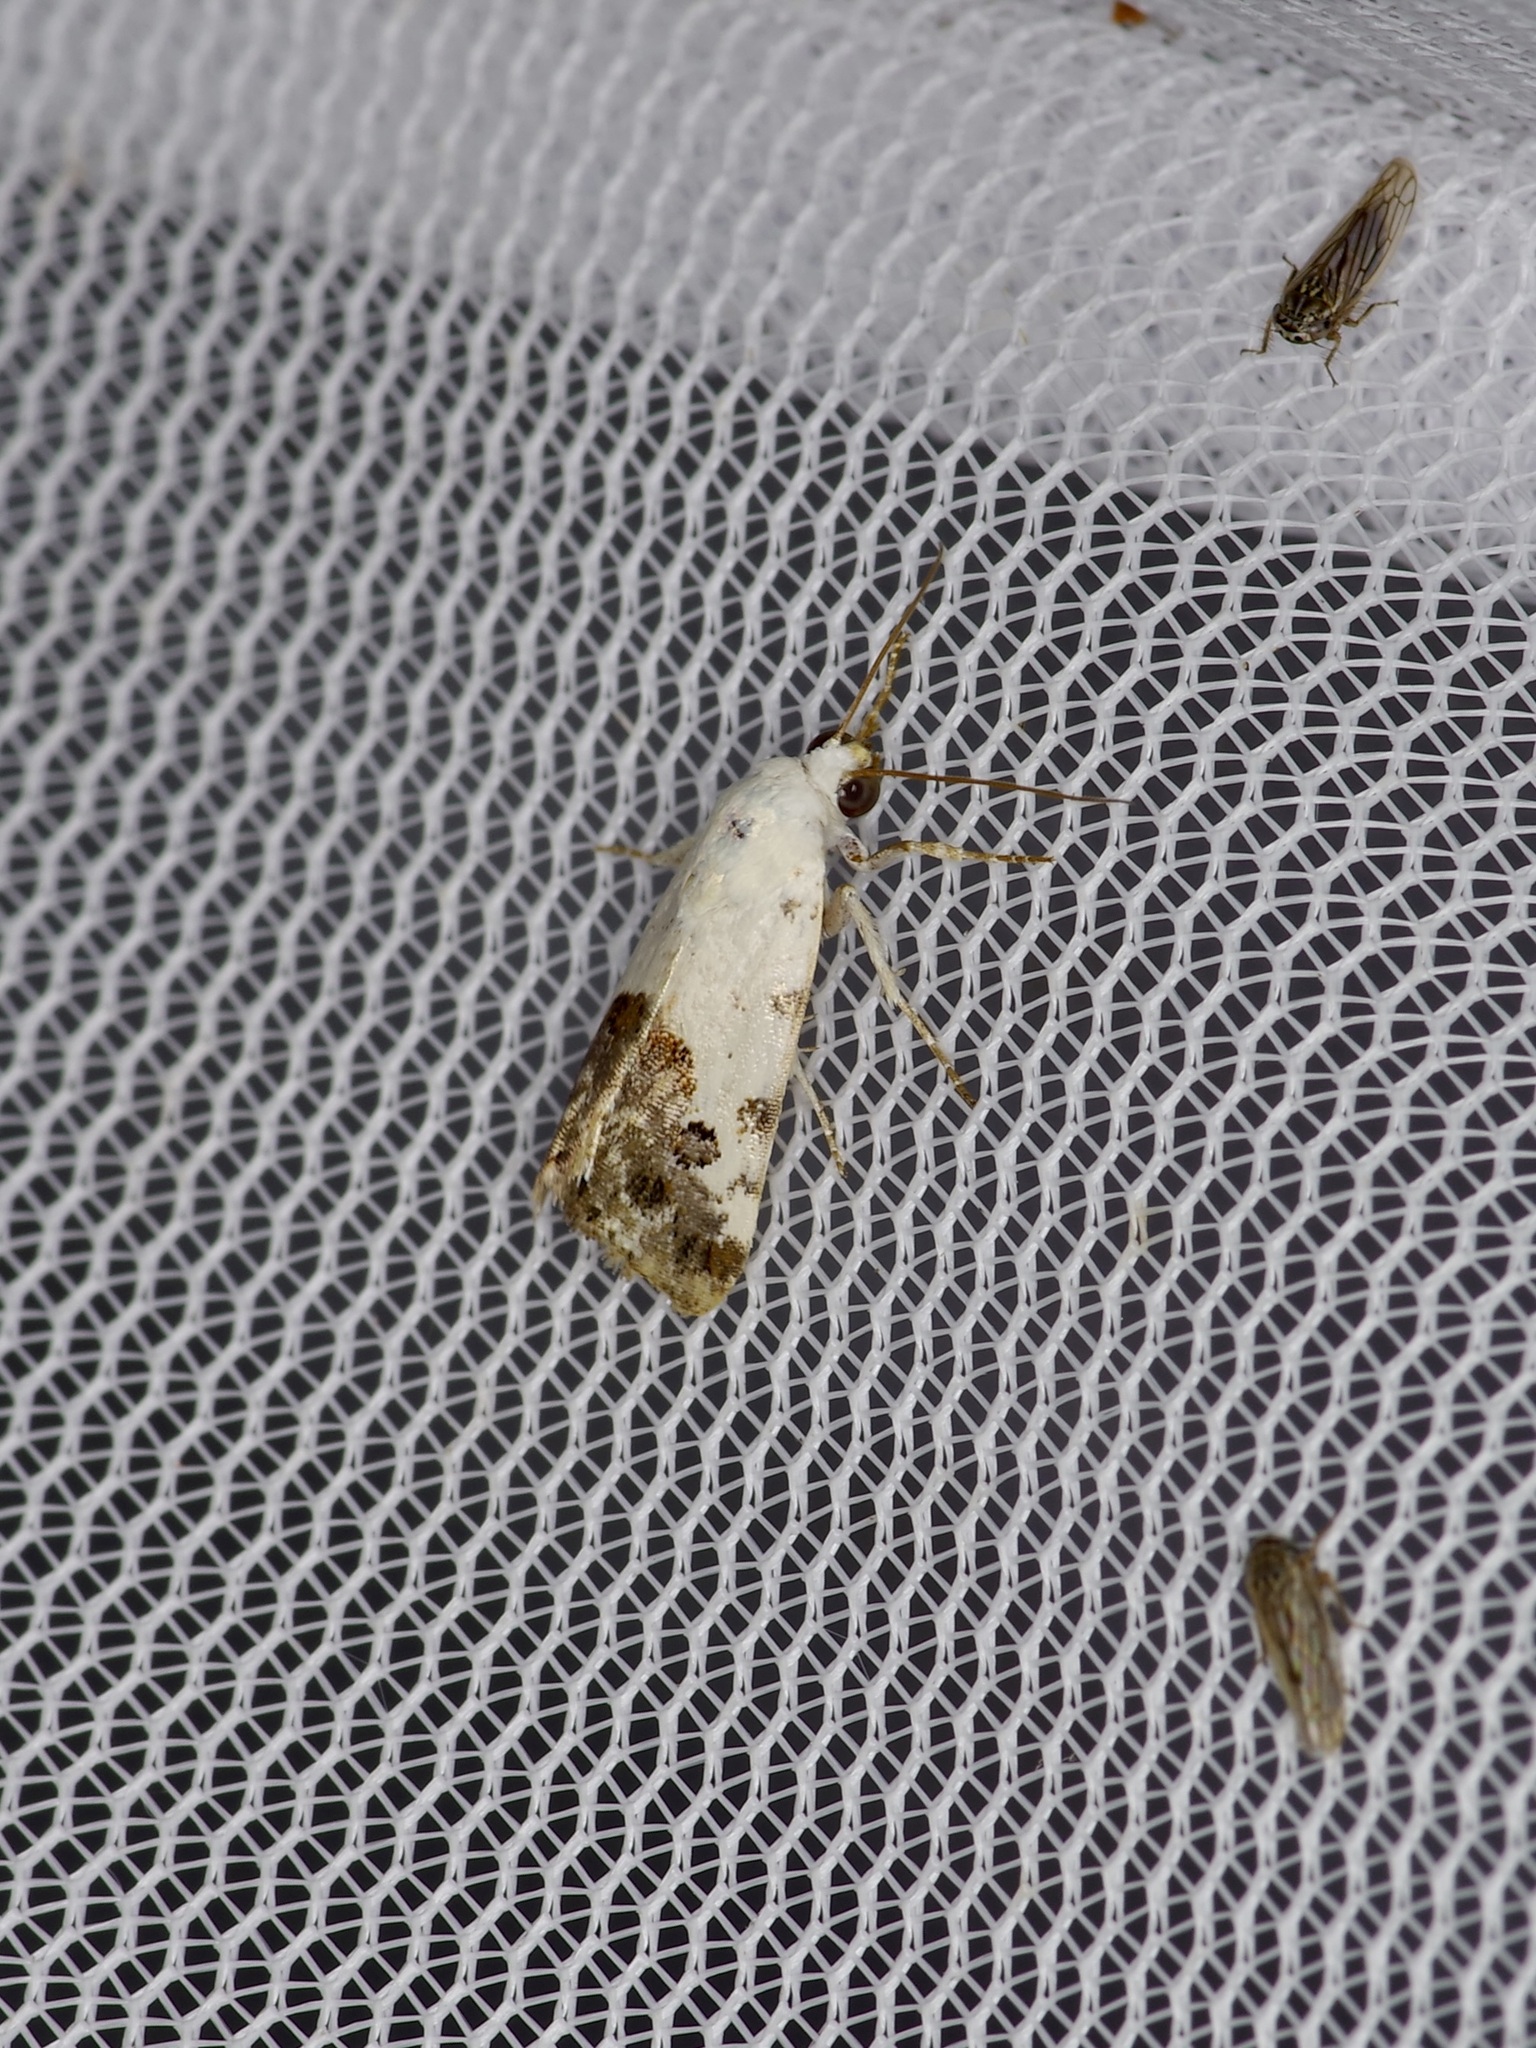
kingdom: Animalia
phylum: Arthropoda
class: Insecta
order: Lepidoptera
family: Noctuidae
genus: Acontia
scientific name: Acontia phecolisca
